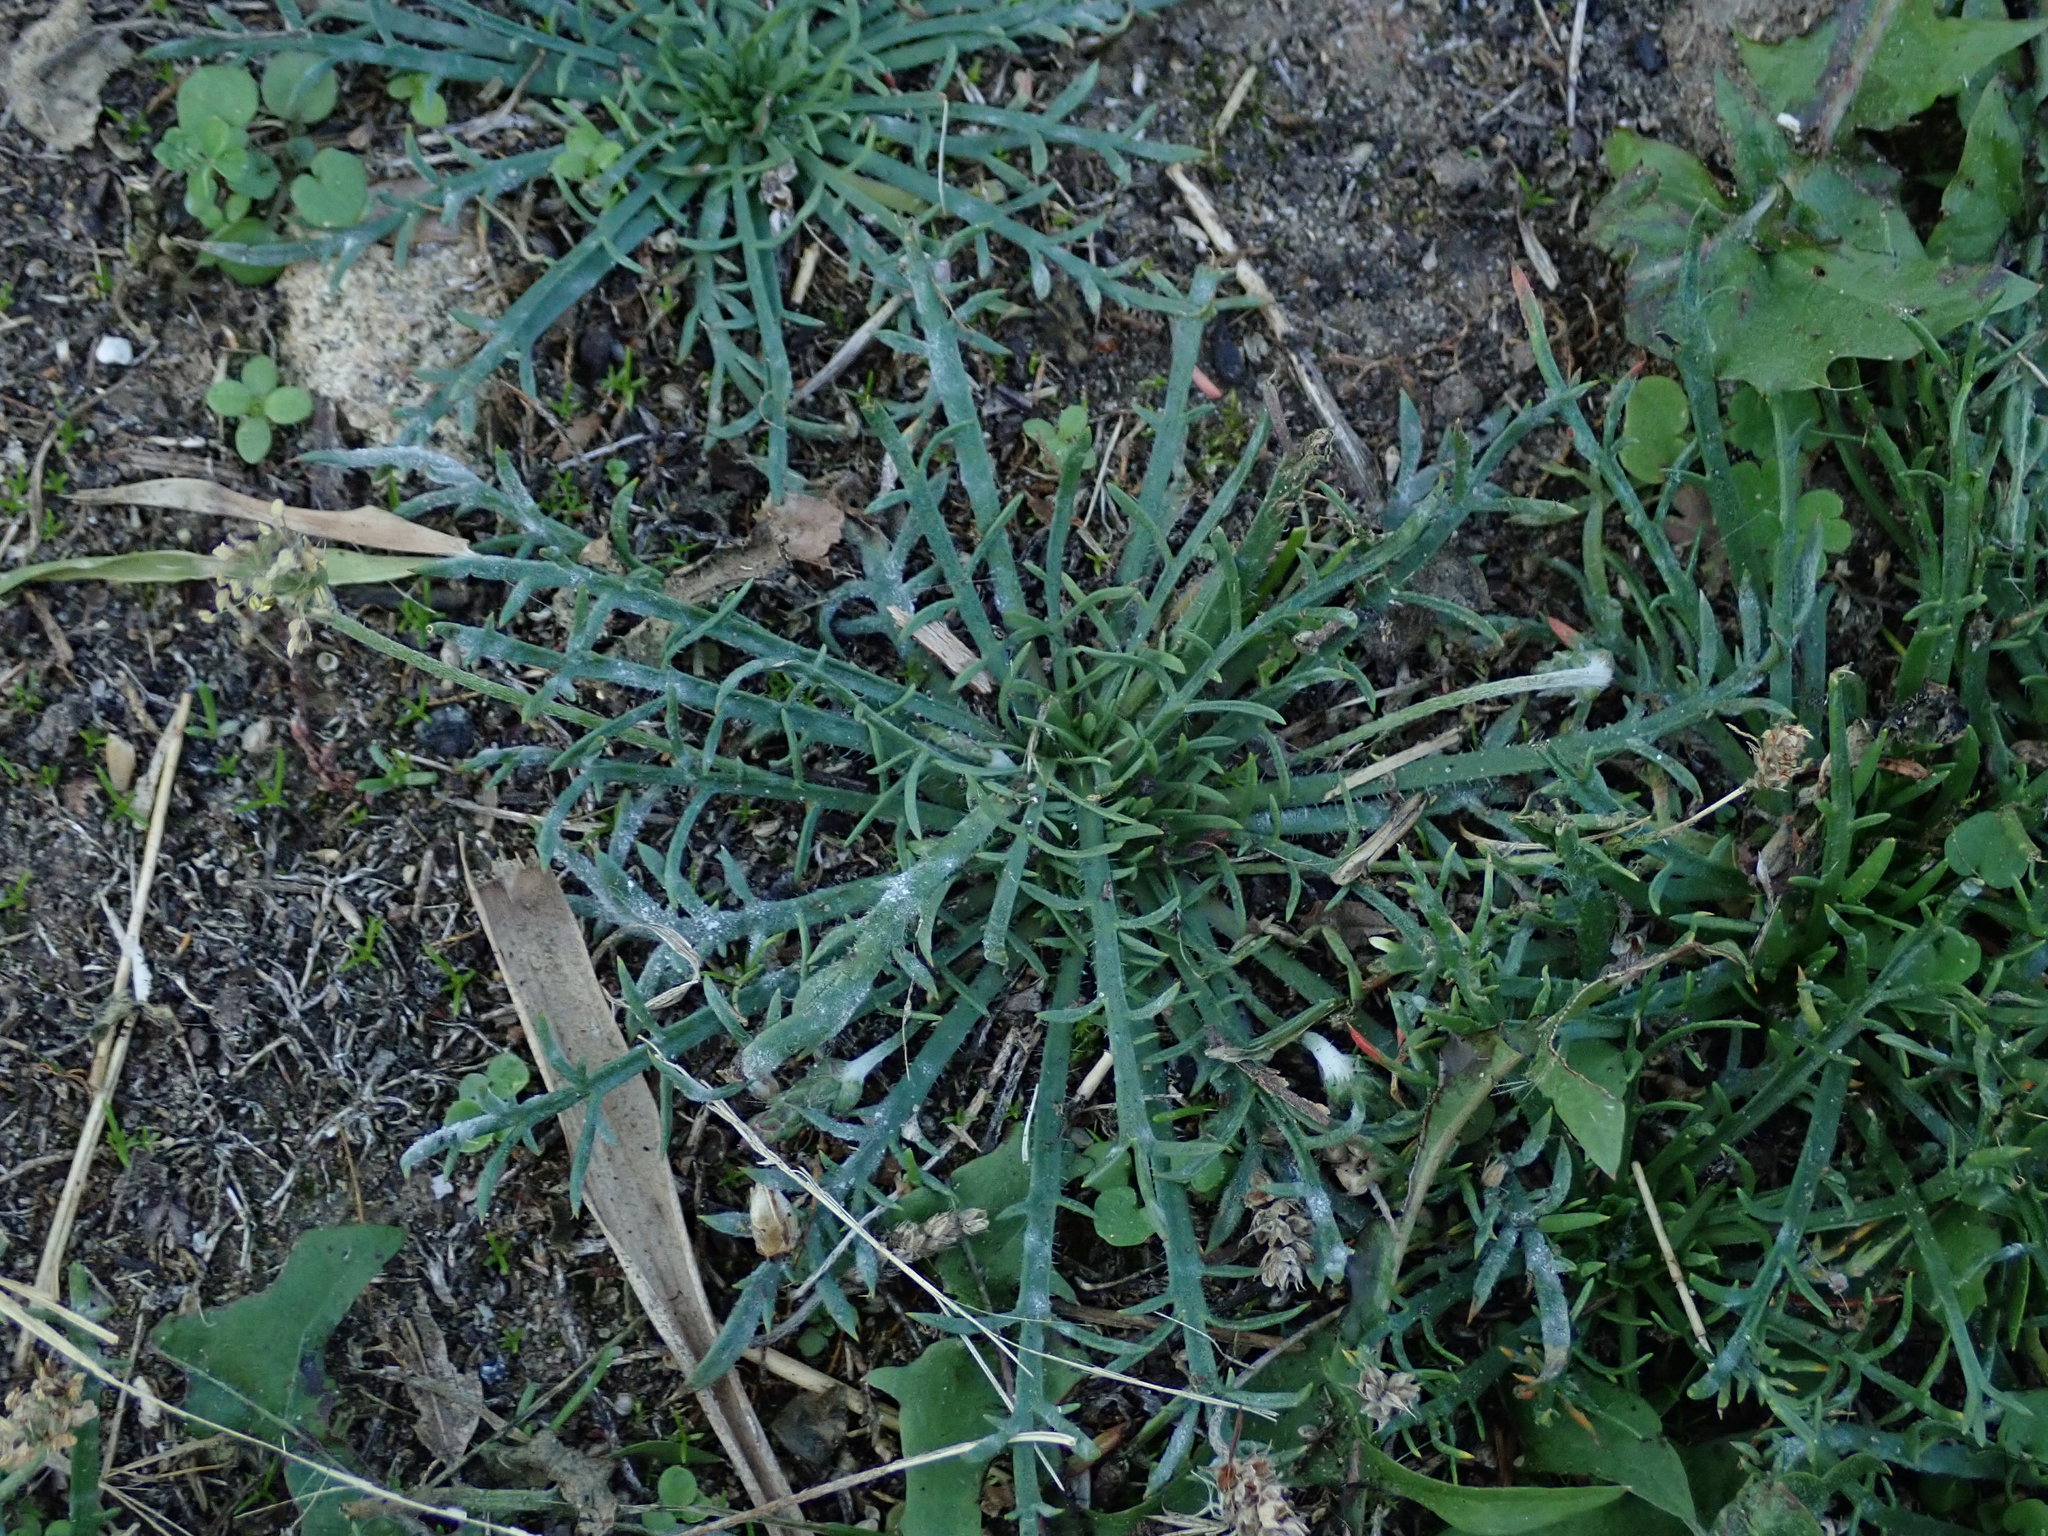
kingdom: Plantae
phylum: Tracheophyta
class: Magnoliopsida
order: Lamiales
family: Plantaginaceae
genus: Plantago
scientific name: Plantago coronopus
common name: Buck's-horn plantain
